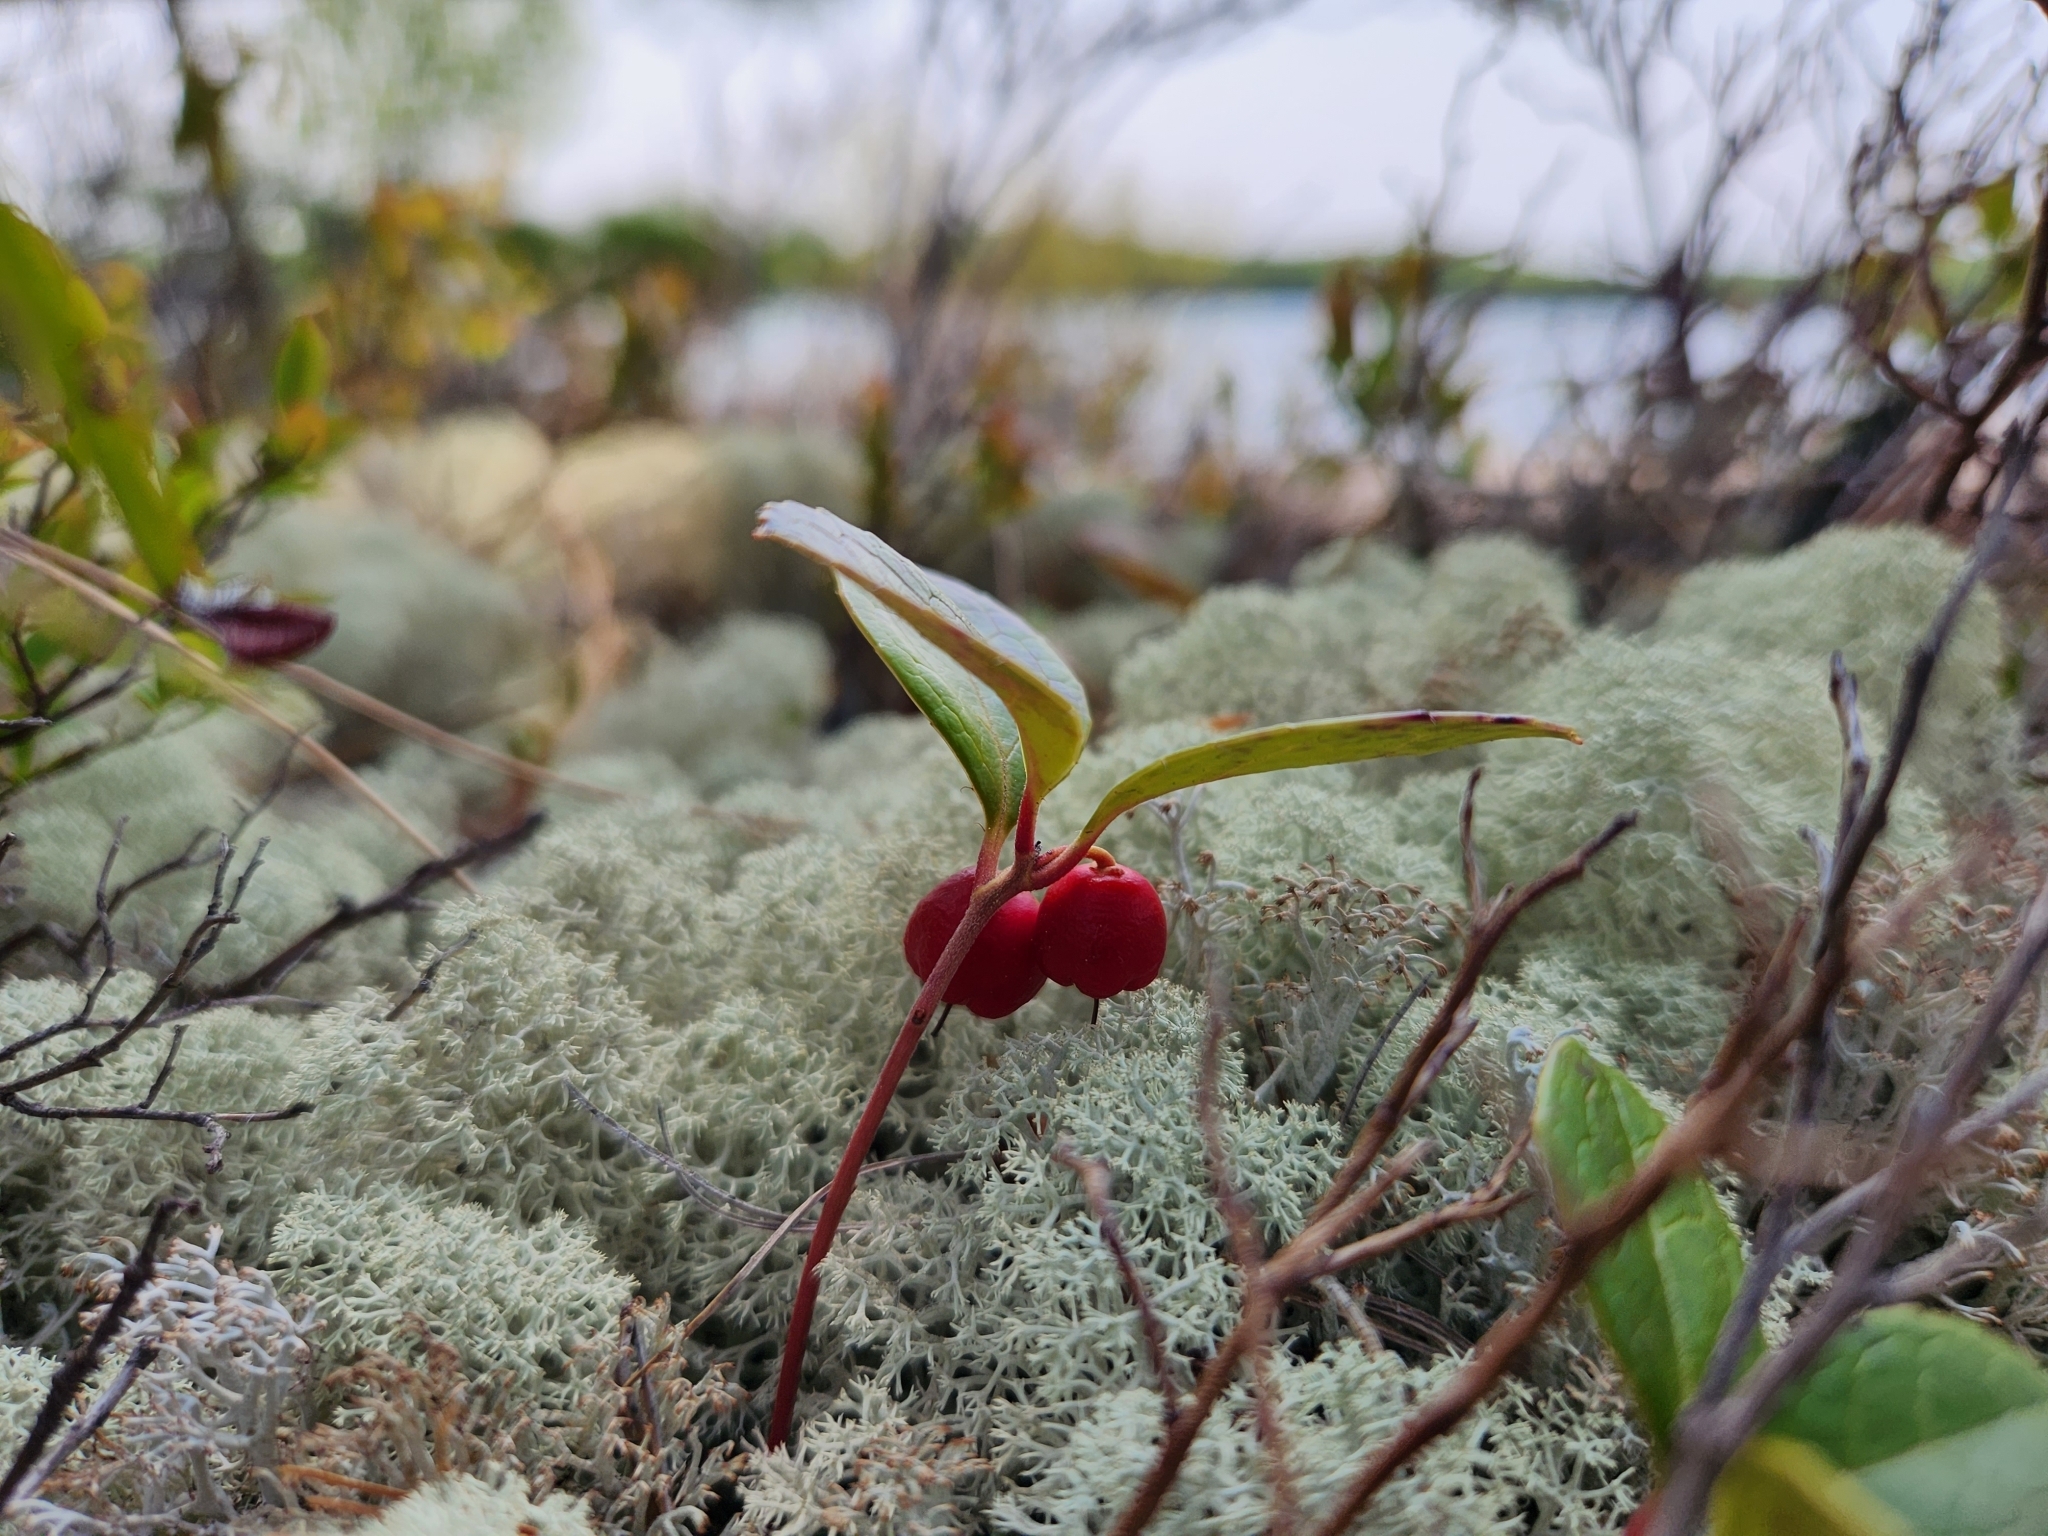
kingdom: Plantae
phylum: Tracheophyta
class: Magnoliopsida
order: Ericales
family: Ericaceae
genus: Gaultheria
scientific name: Gaultheria procumbens
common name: Checkerberry
